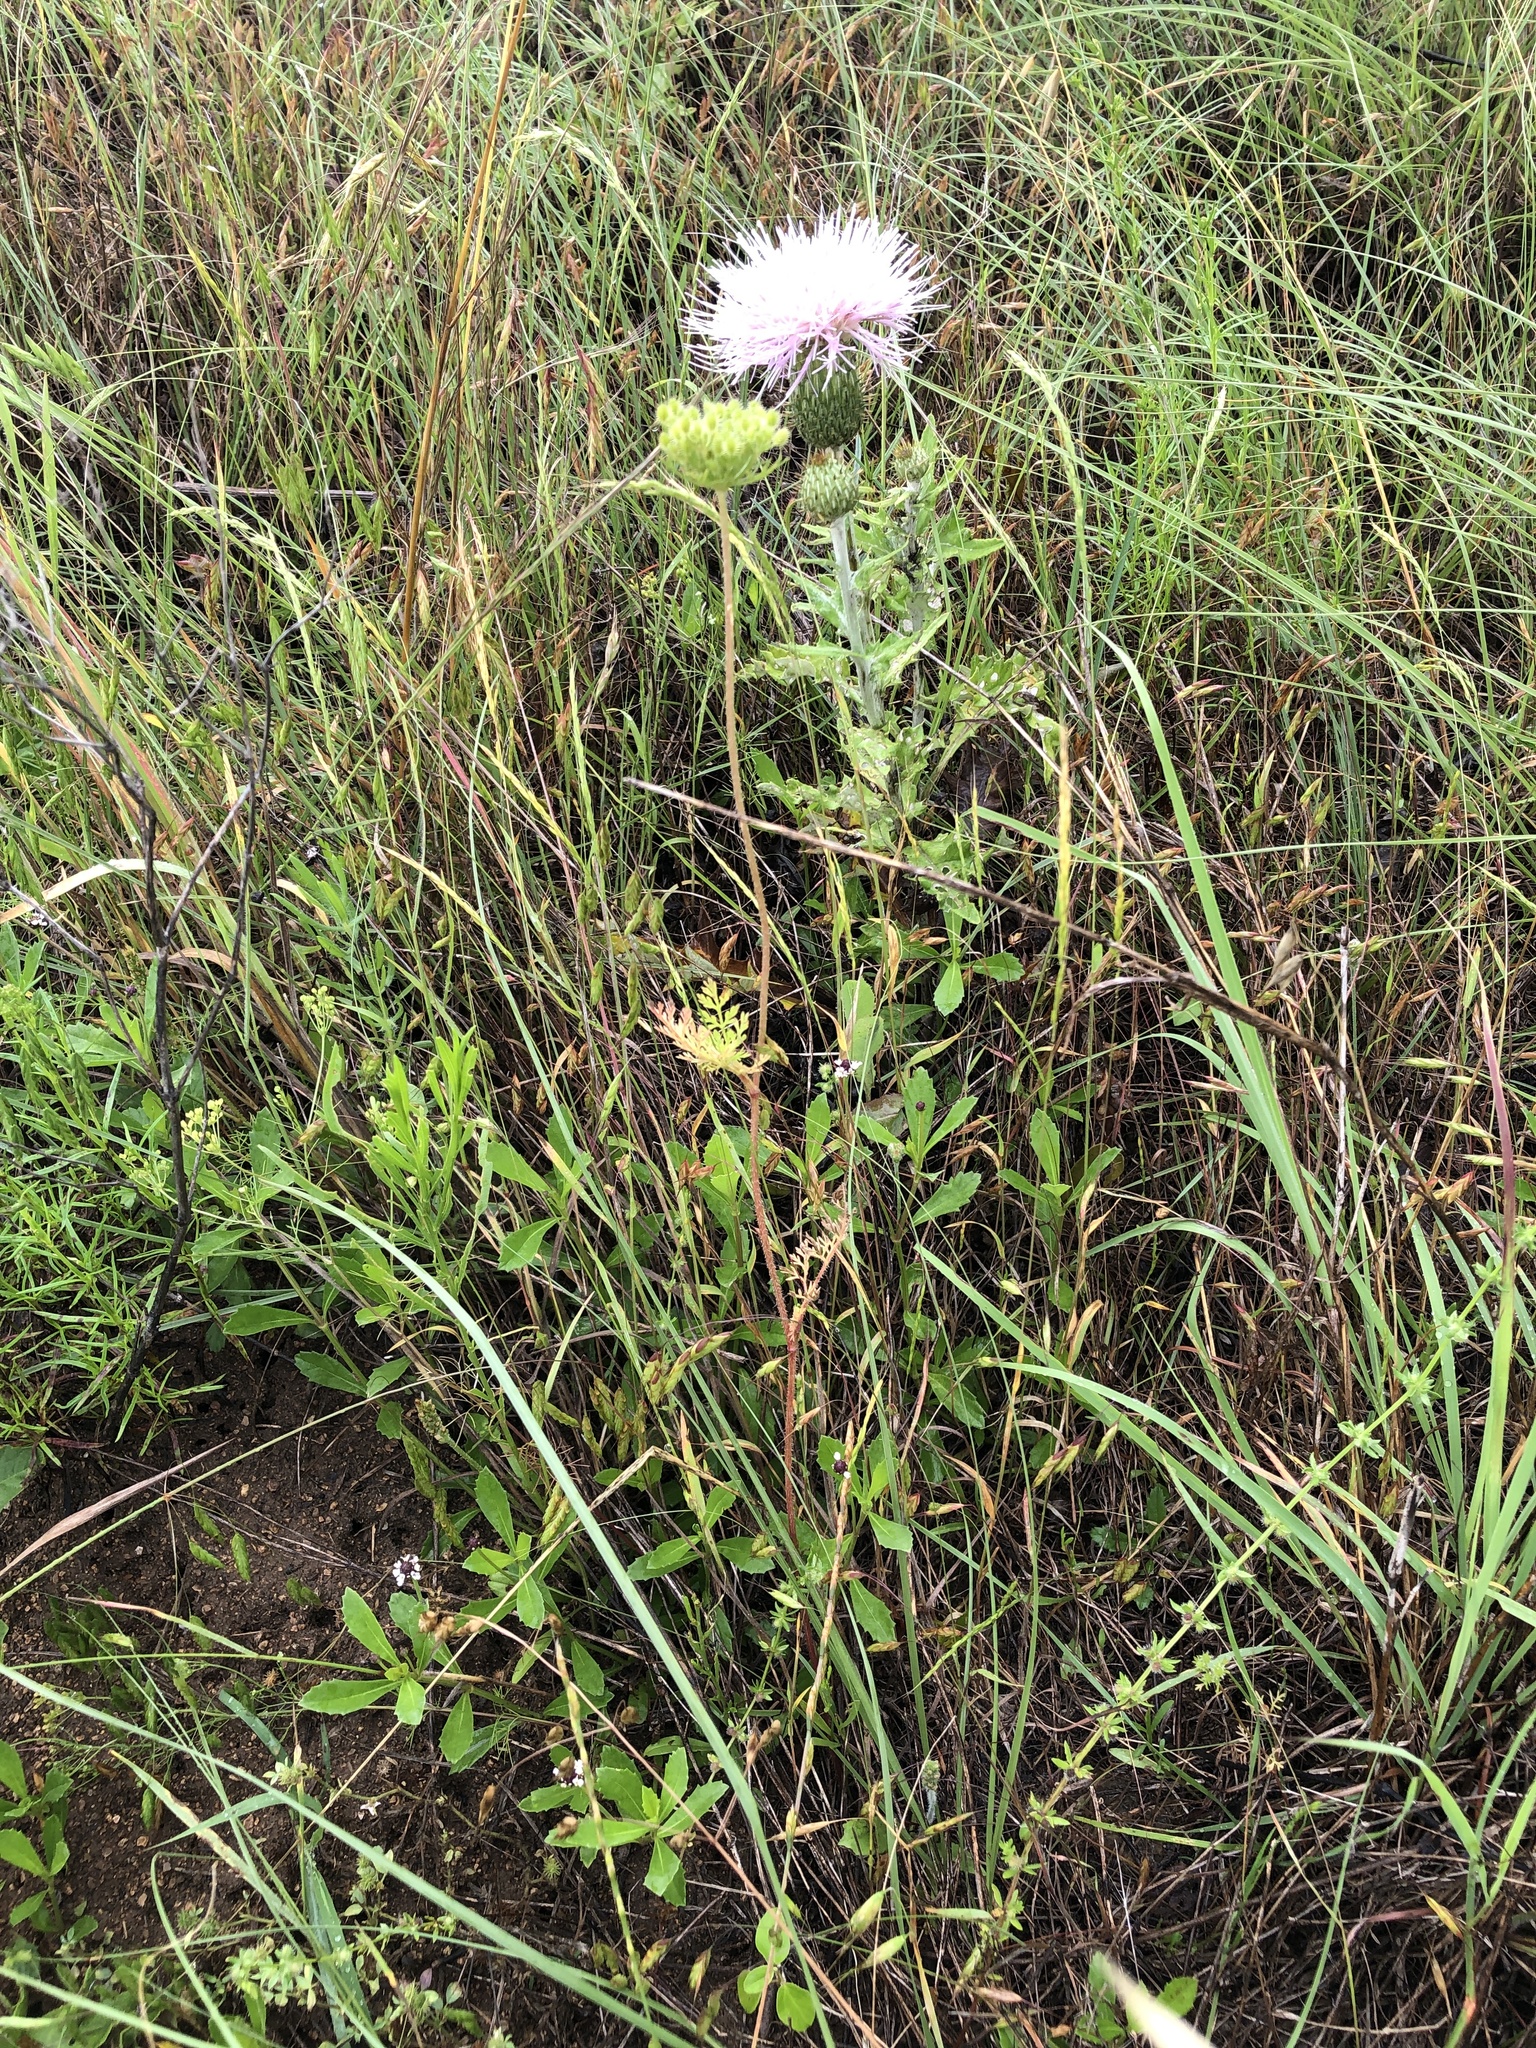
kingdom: Plantae
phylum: Tracheophyta
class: Magnoliopsida
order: Apiales
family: Apiaceae
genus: Daucus
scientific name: Daucus pusillus
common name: Southwest wild carrot
